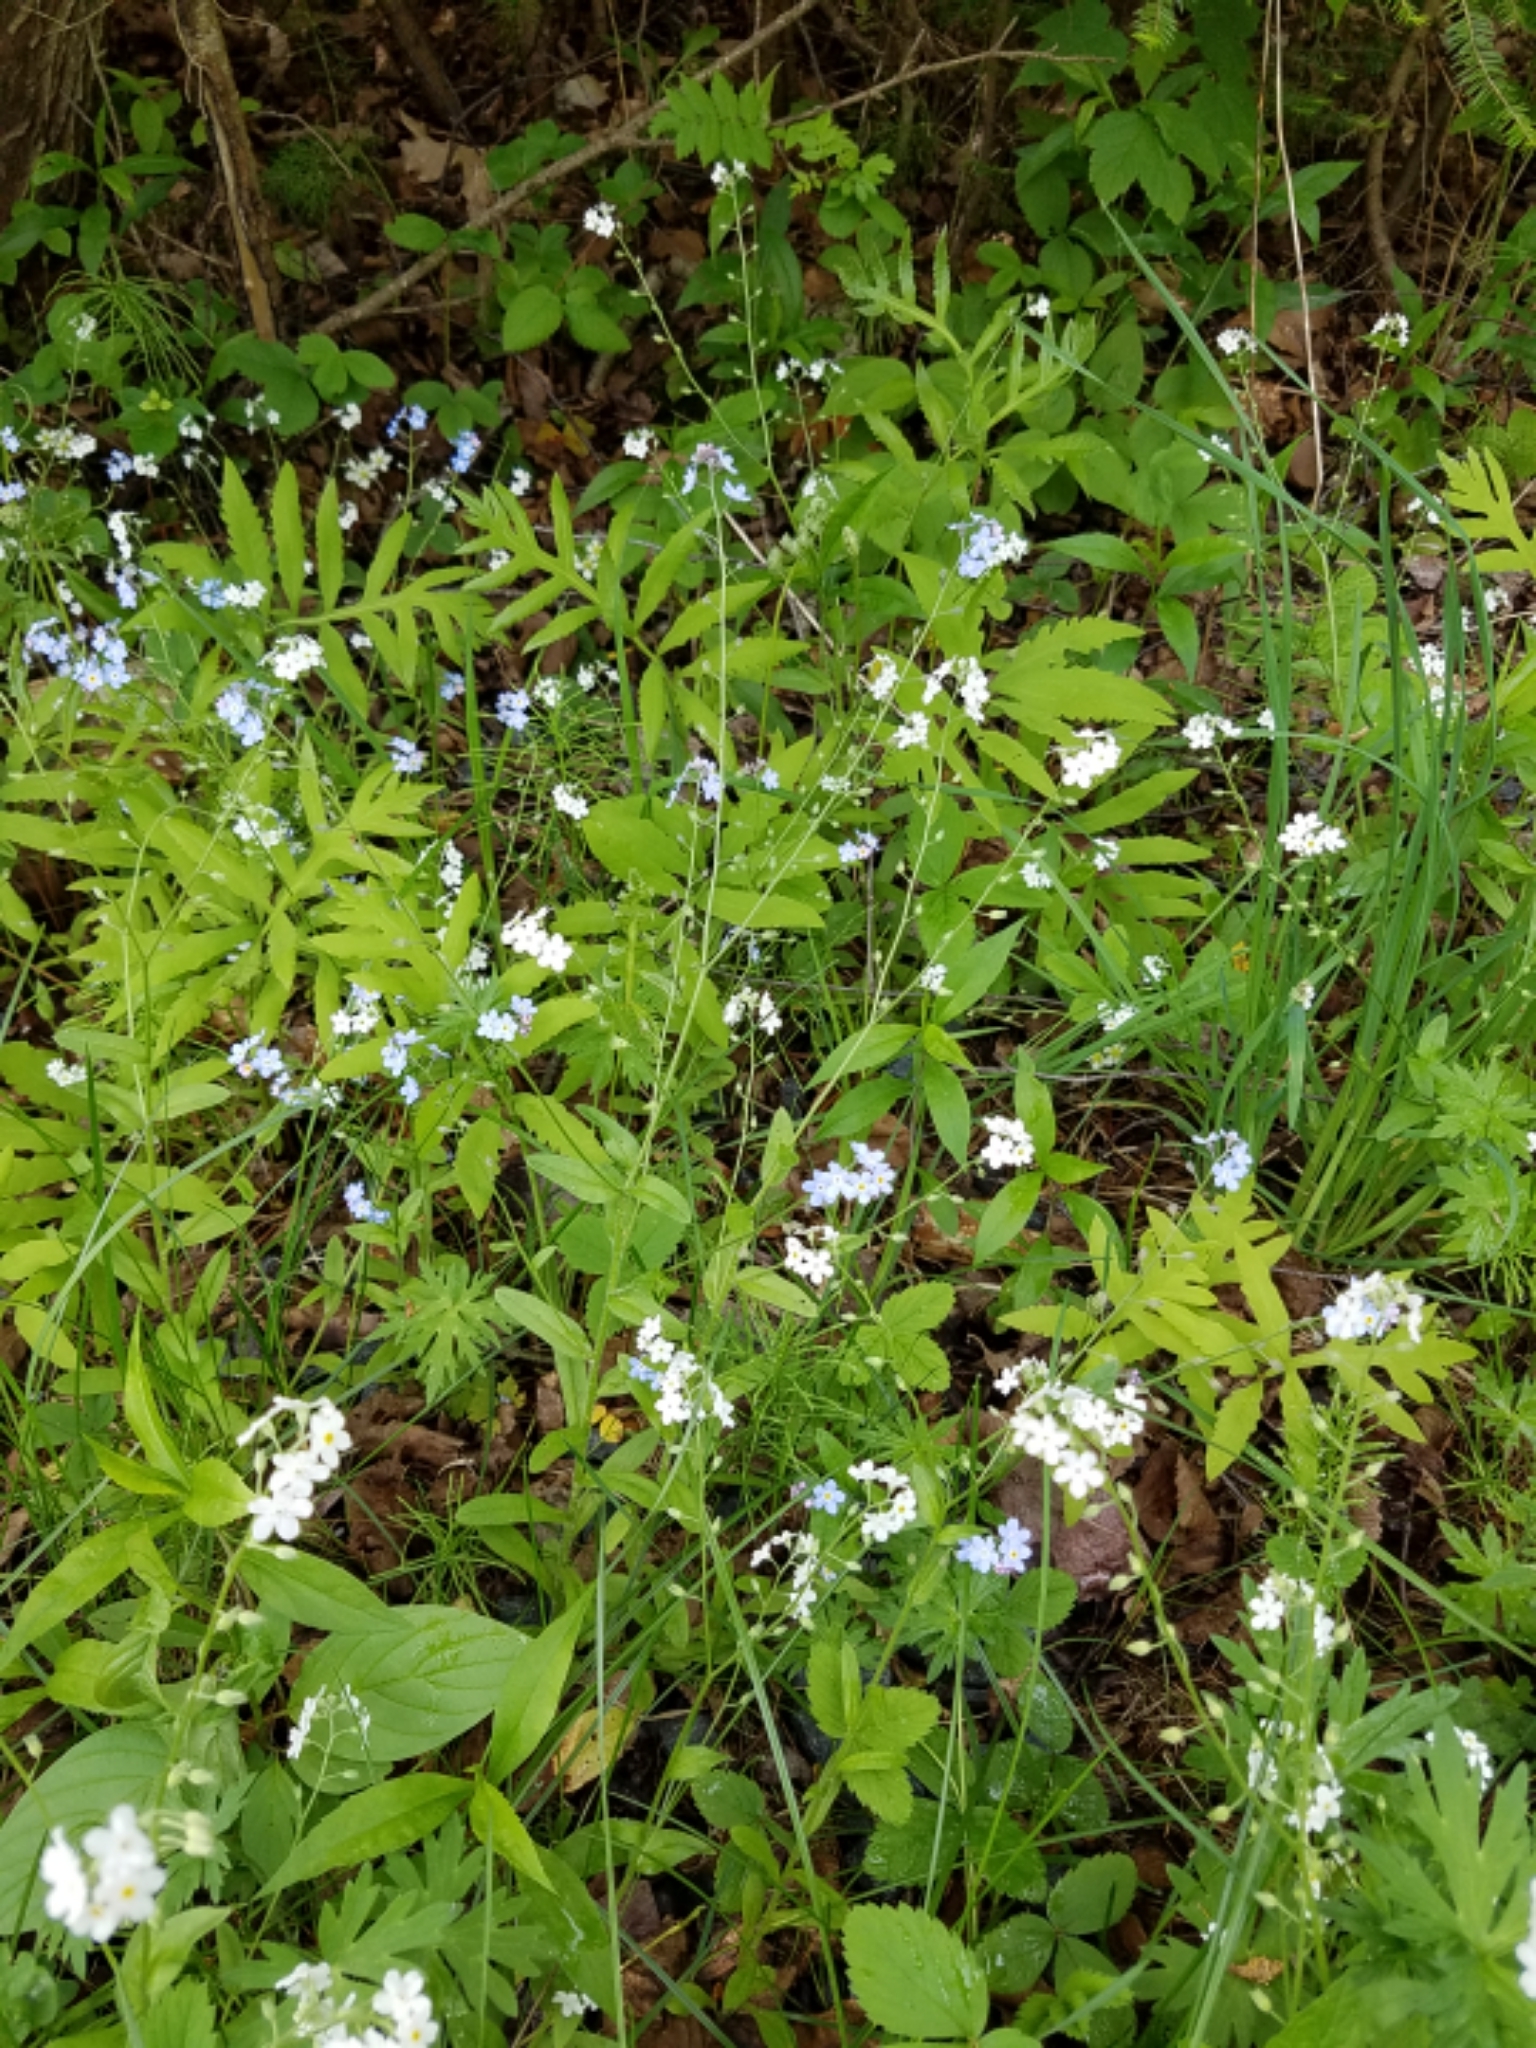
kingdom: Plantae
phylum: Tracheophyta
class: Magnoliopsida
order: Boraginales
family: Boraginaceae
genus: Myosotis
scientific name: Myosotis scorpioides
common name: Water forget-me-not
